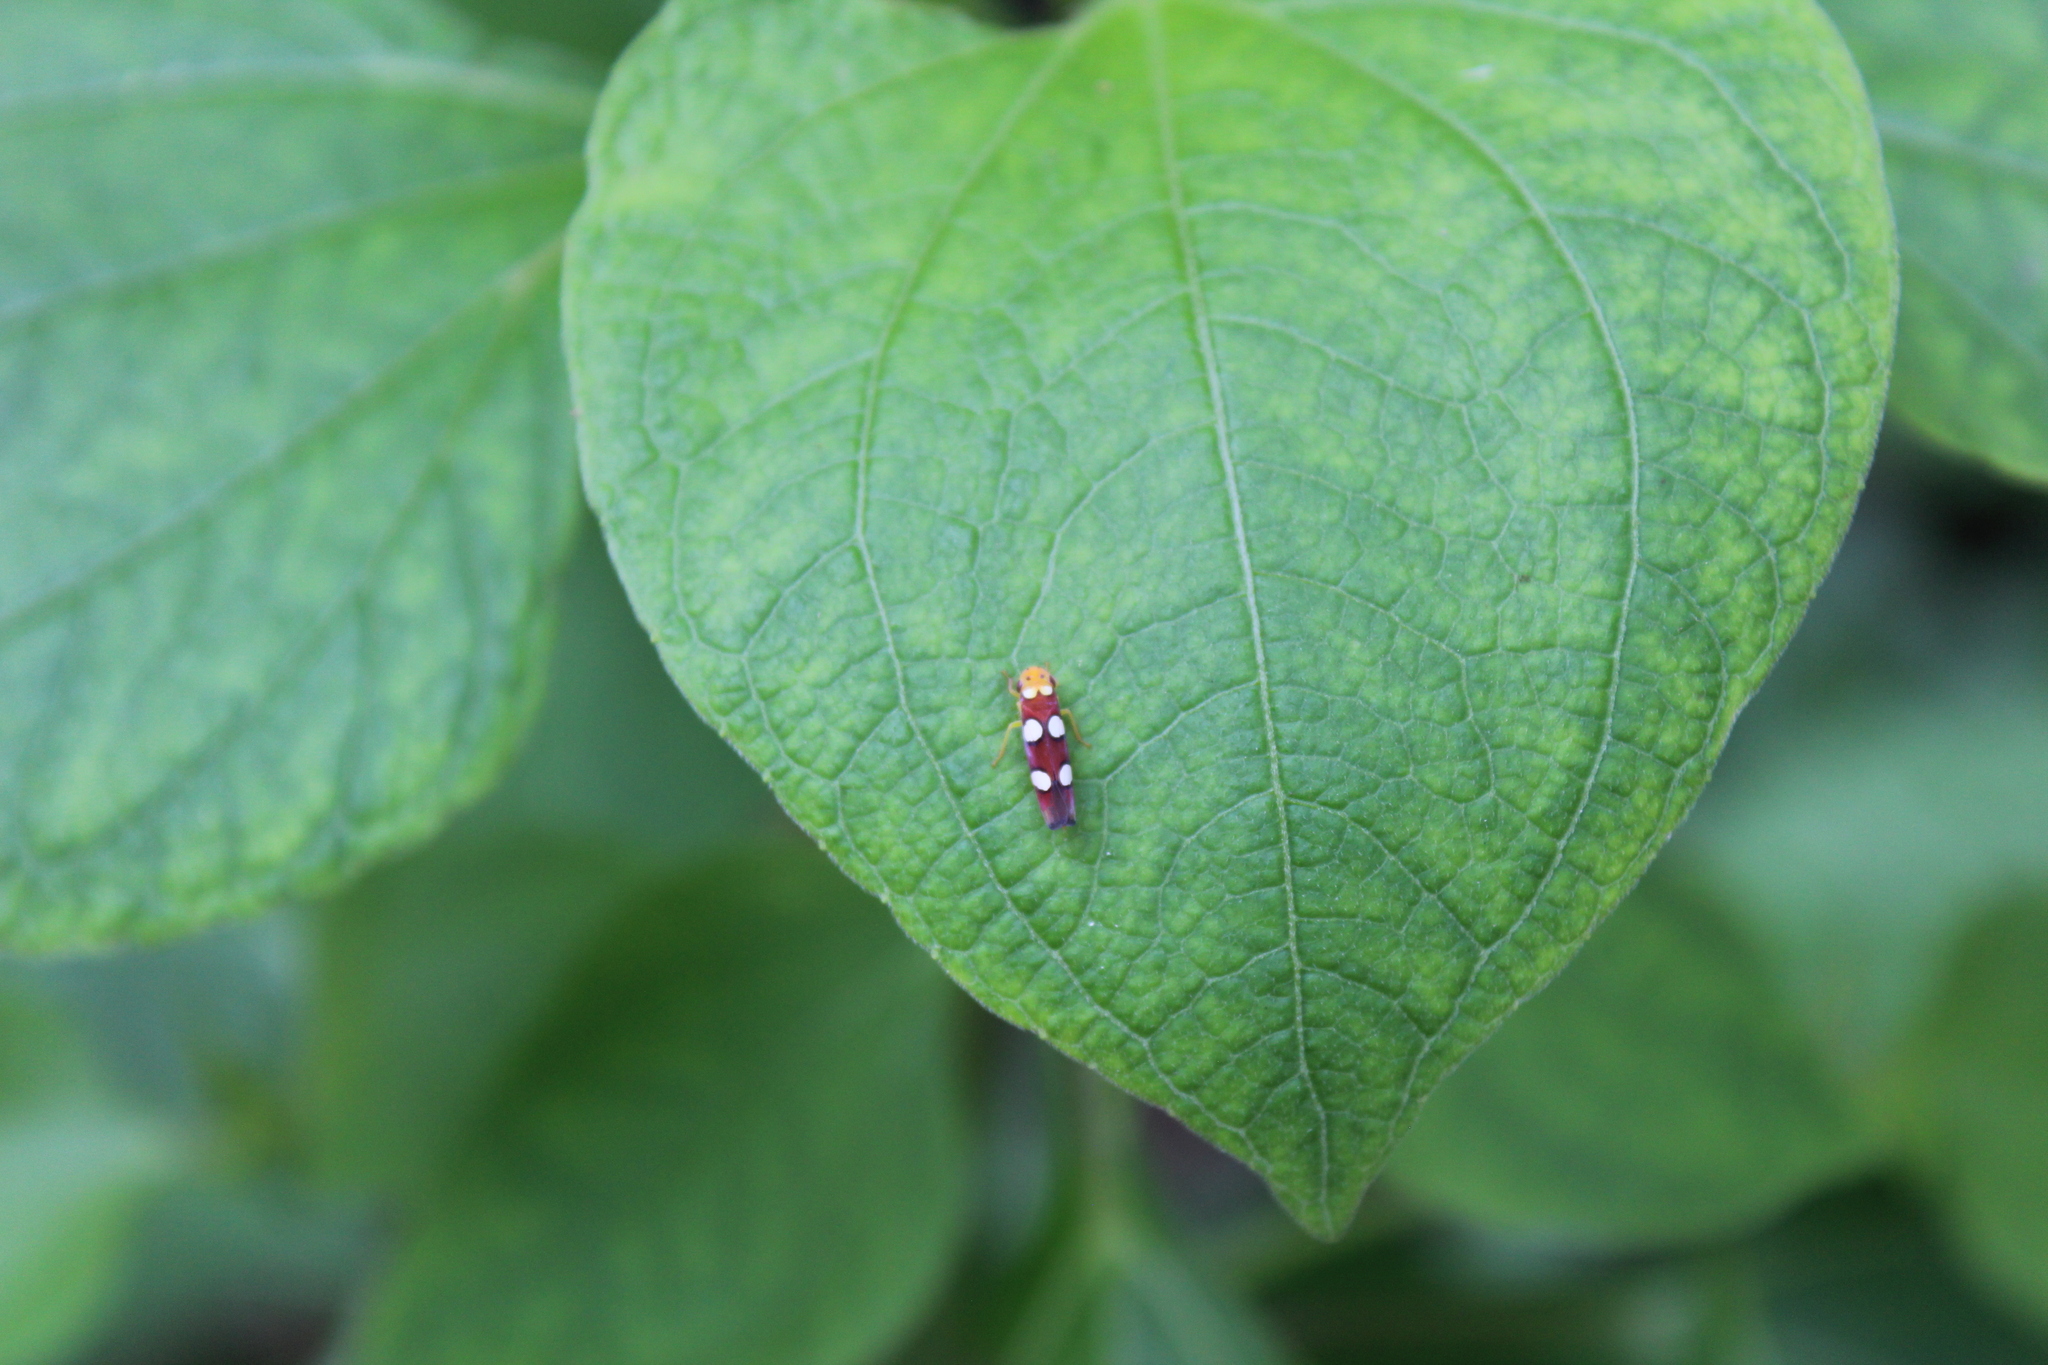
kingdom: Animalia
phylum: Arthropoda
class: Insecta
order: Hemiptera
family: Cicadellidae
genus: Erythrogonia
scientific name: Erythrogonia laudata
